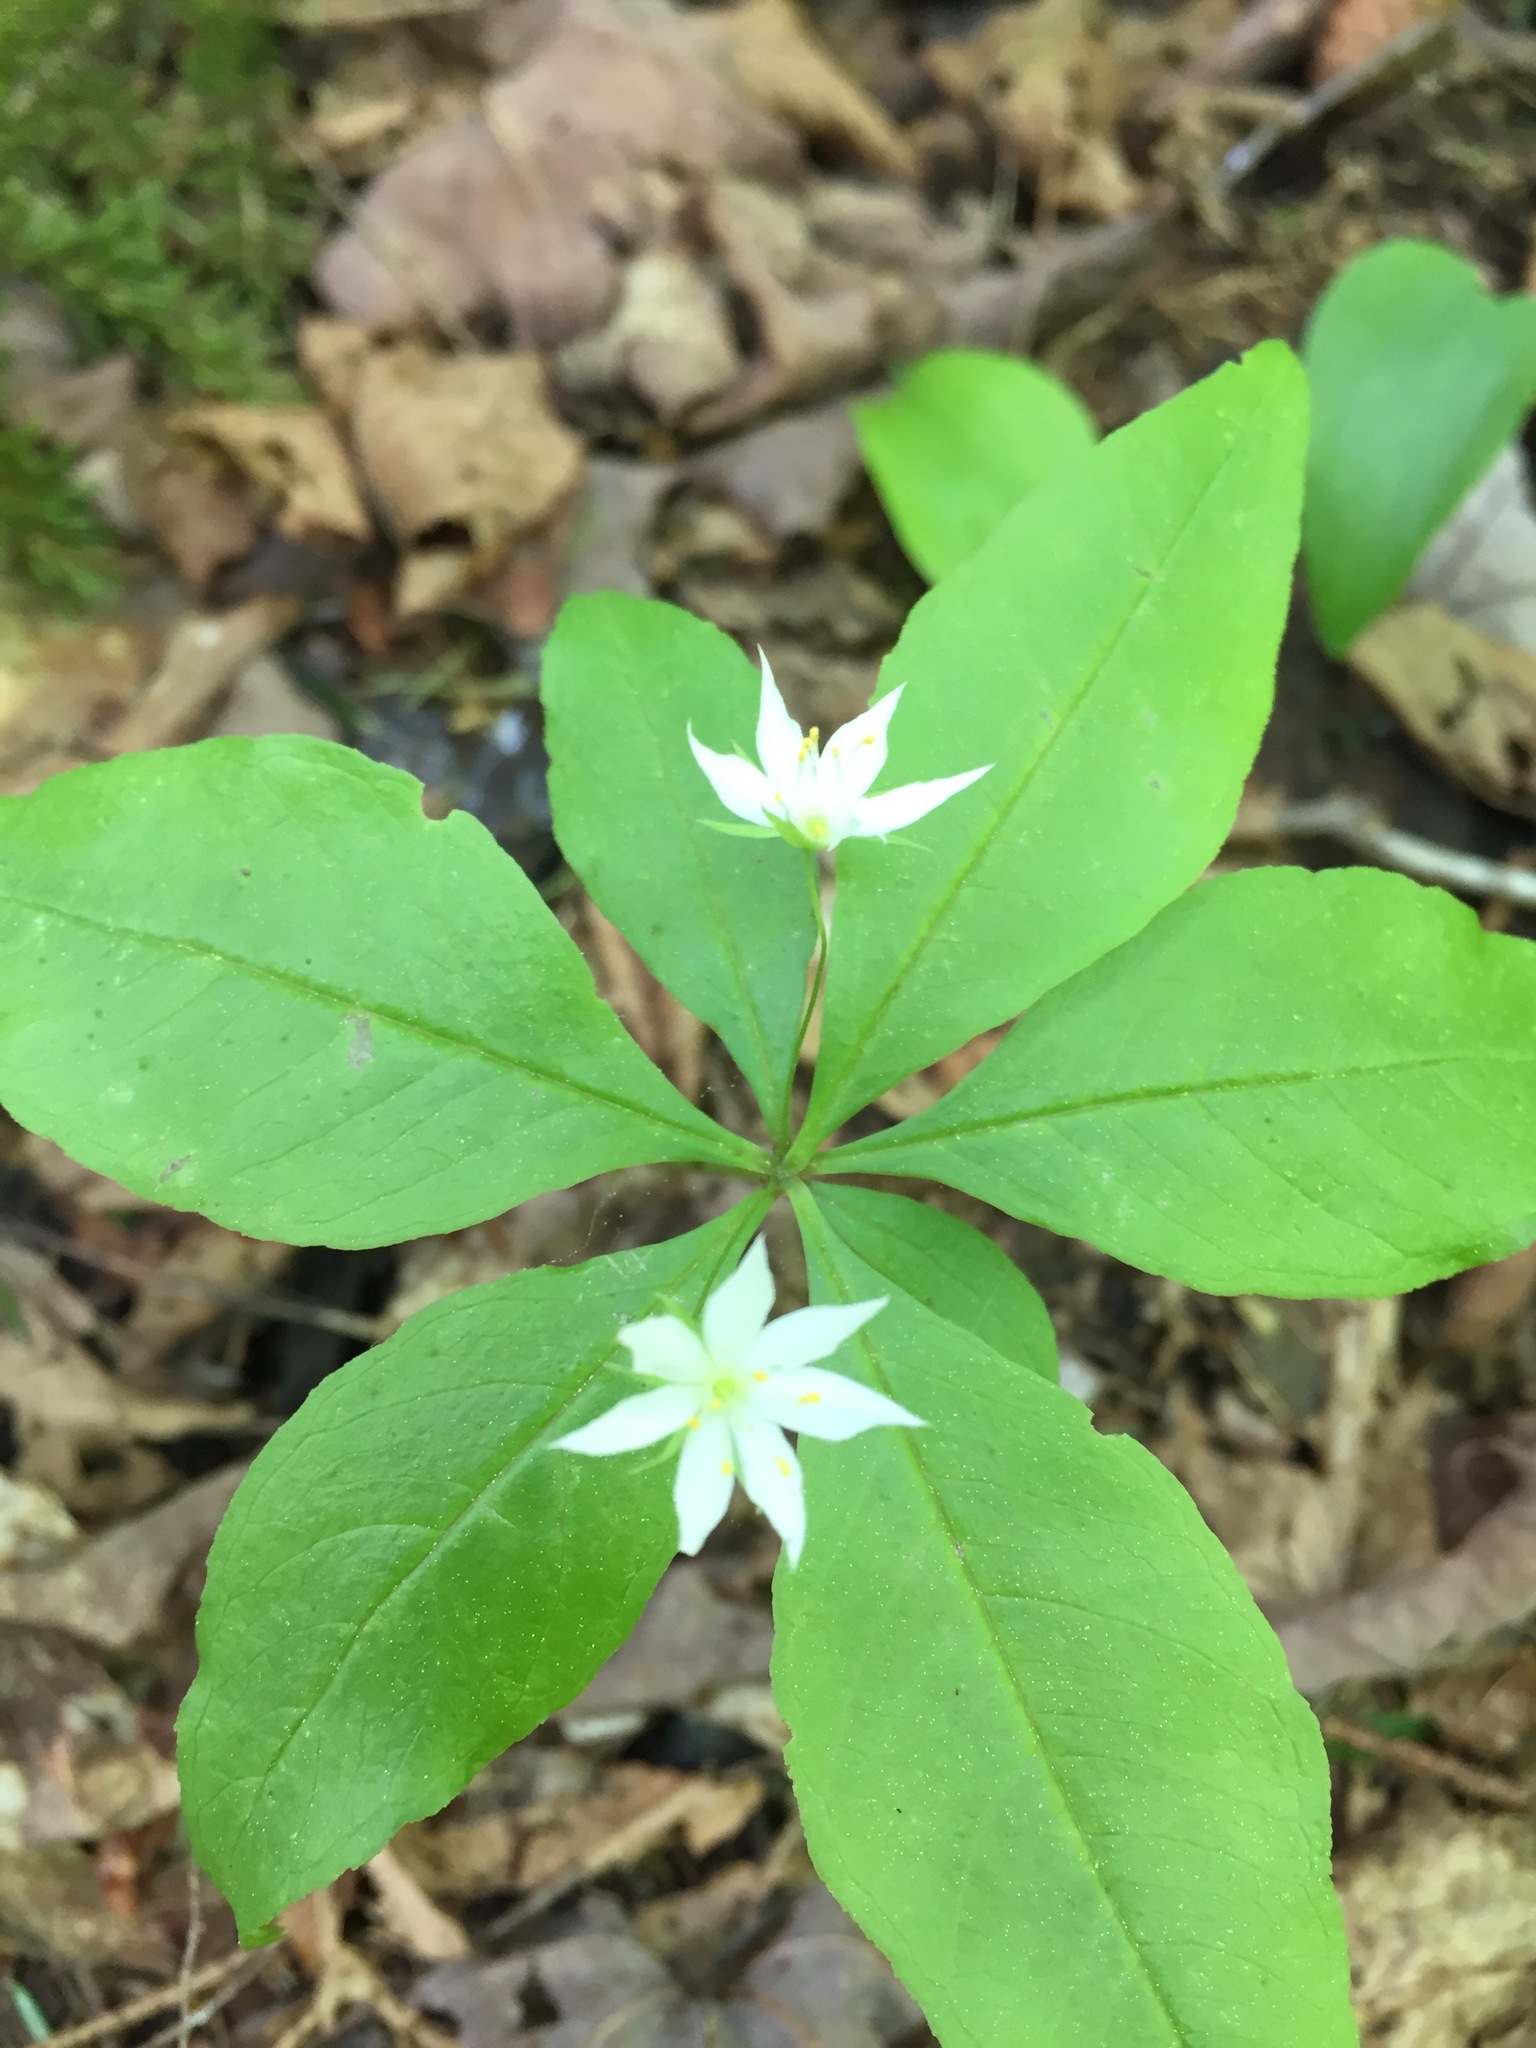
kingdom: Plantae
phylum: Tracheophyta
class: Magnoliopsida
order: Ericales
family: Primulaceae
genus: Lysimachia
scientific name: Lysimachia borealis
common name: American starflower
